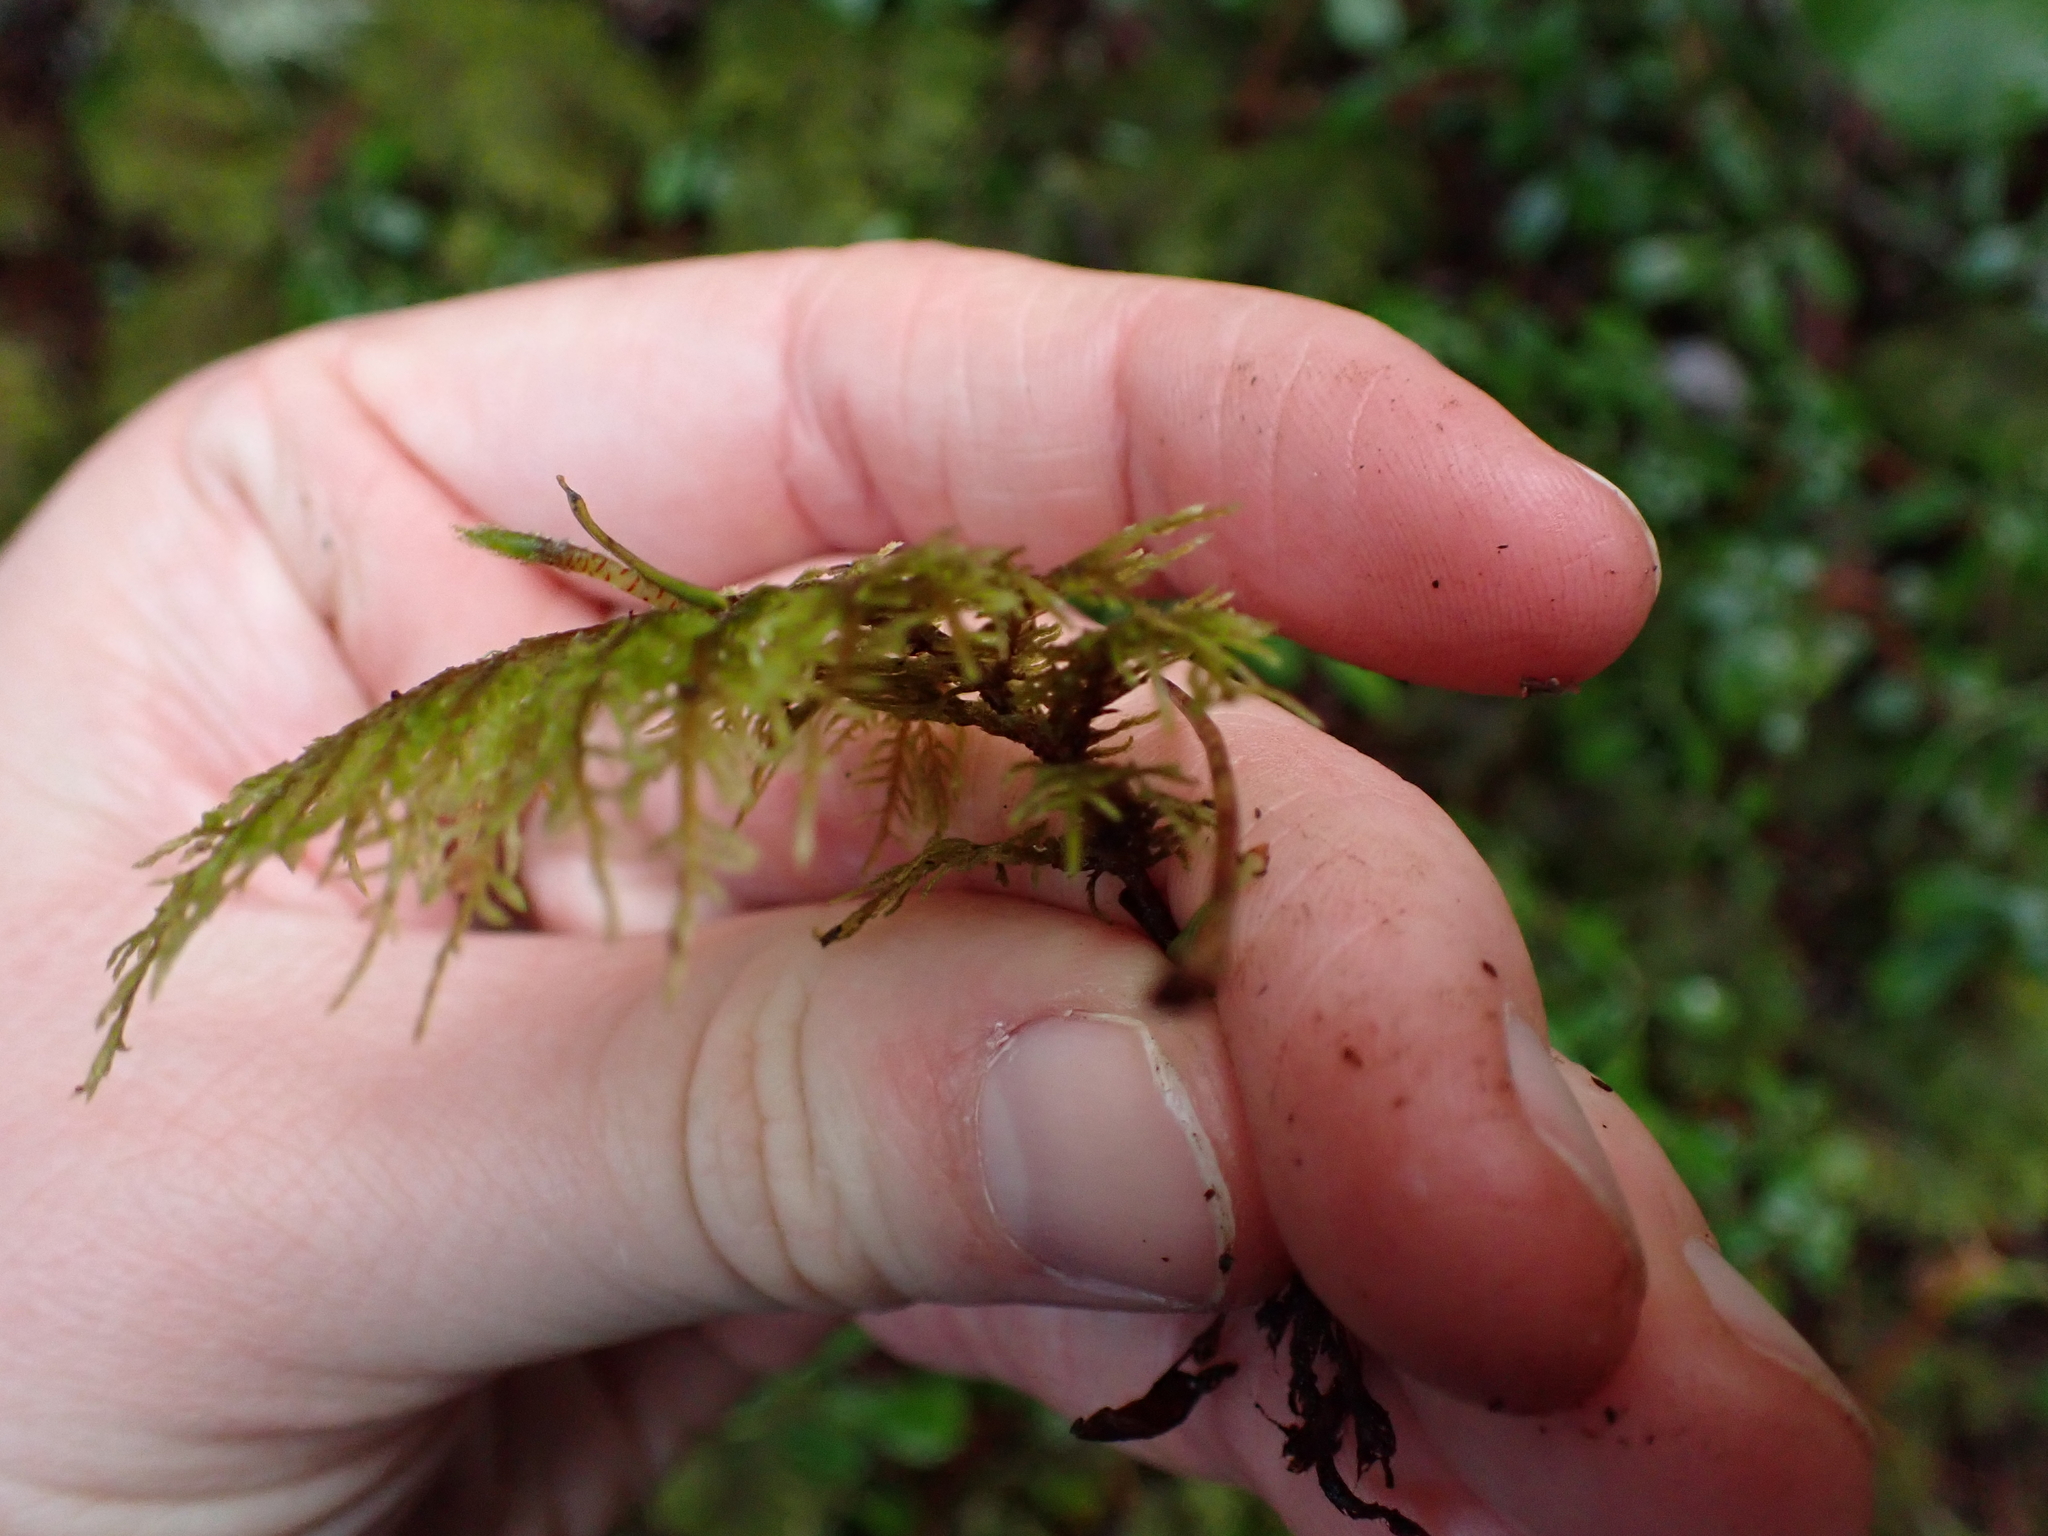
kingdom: Plantae
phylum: Bryophyta
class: Bryopsida
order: Hypnales
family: Hylocomiaceae
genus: Hylocomium
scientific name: Hylocomium splendens
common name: Stairstep moss
